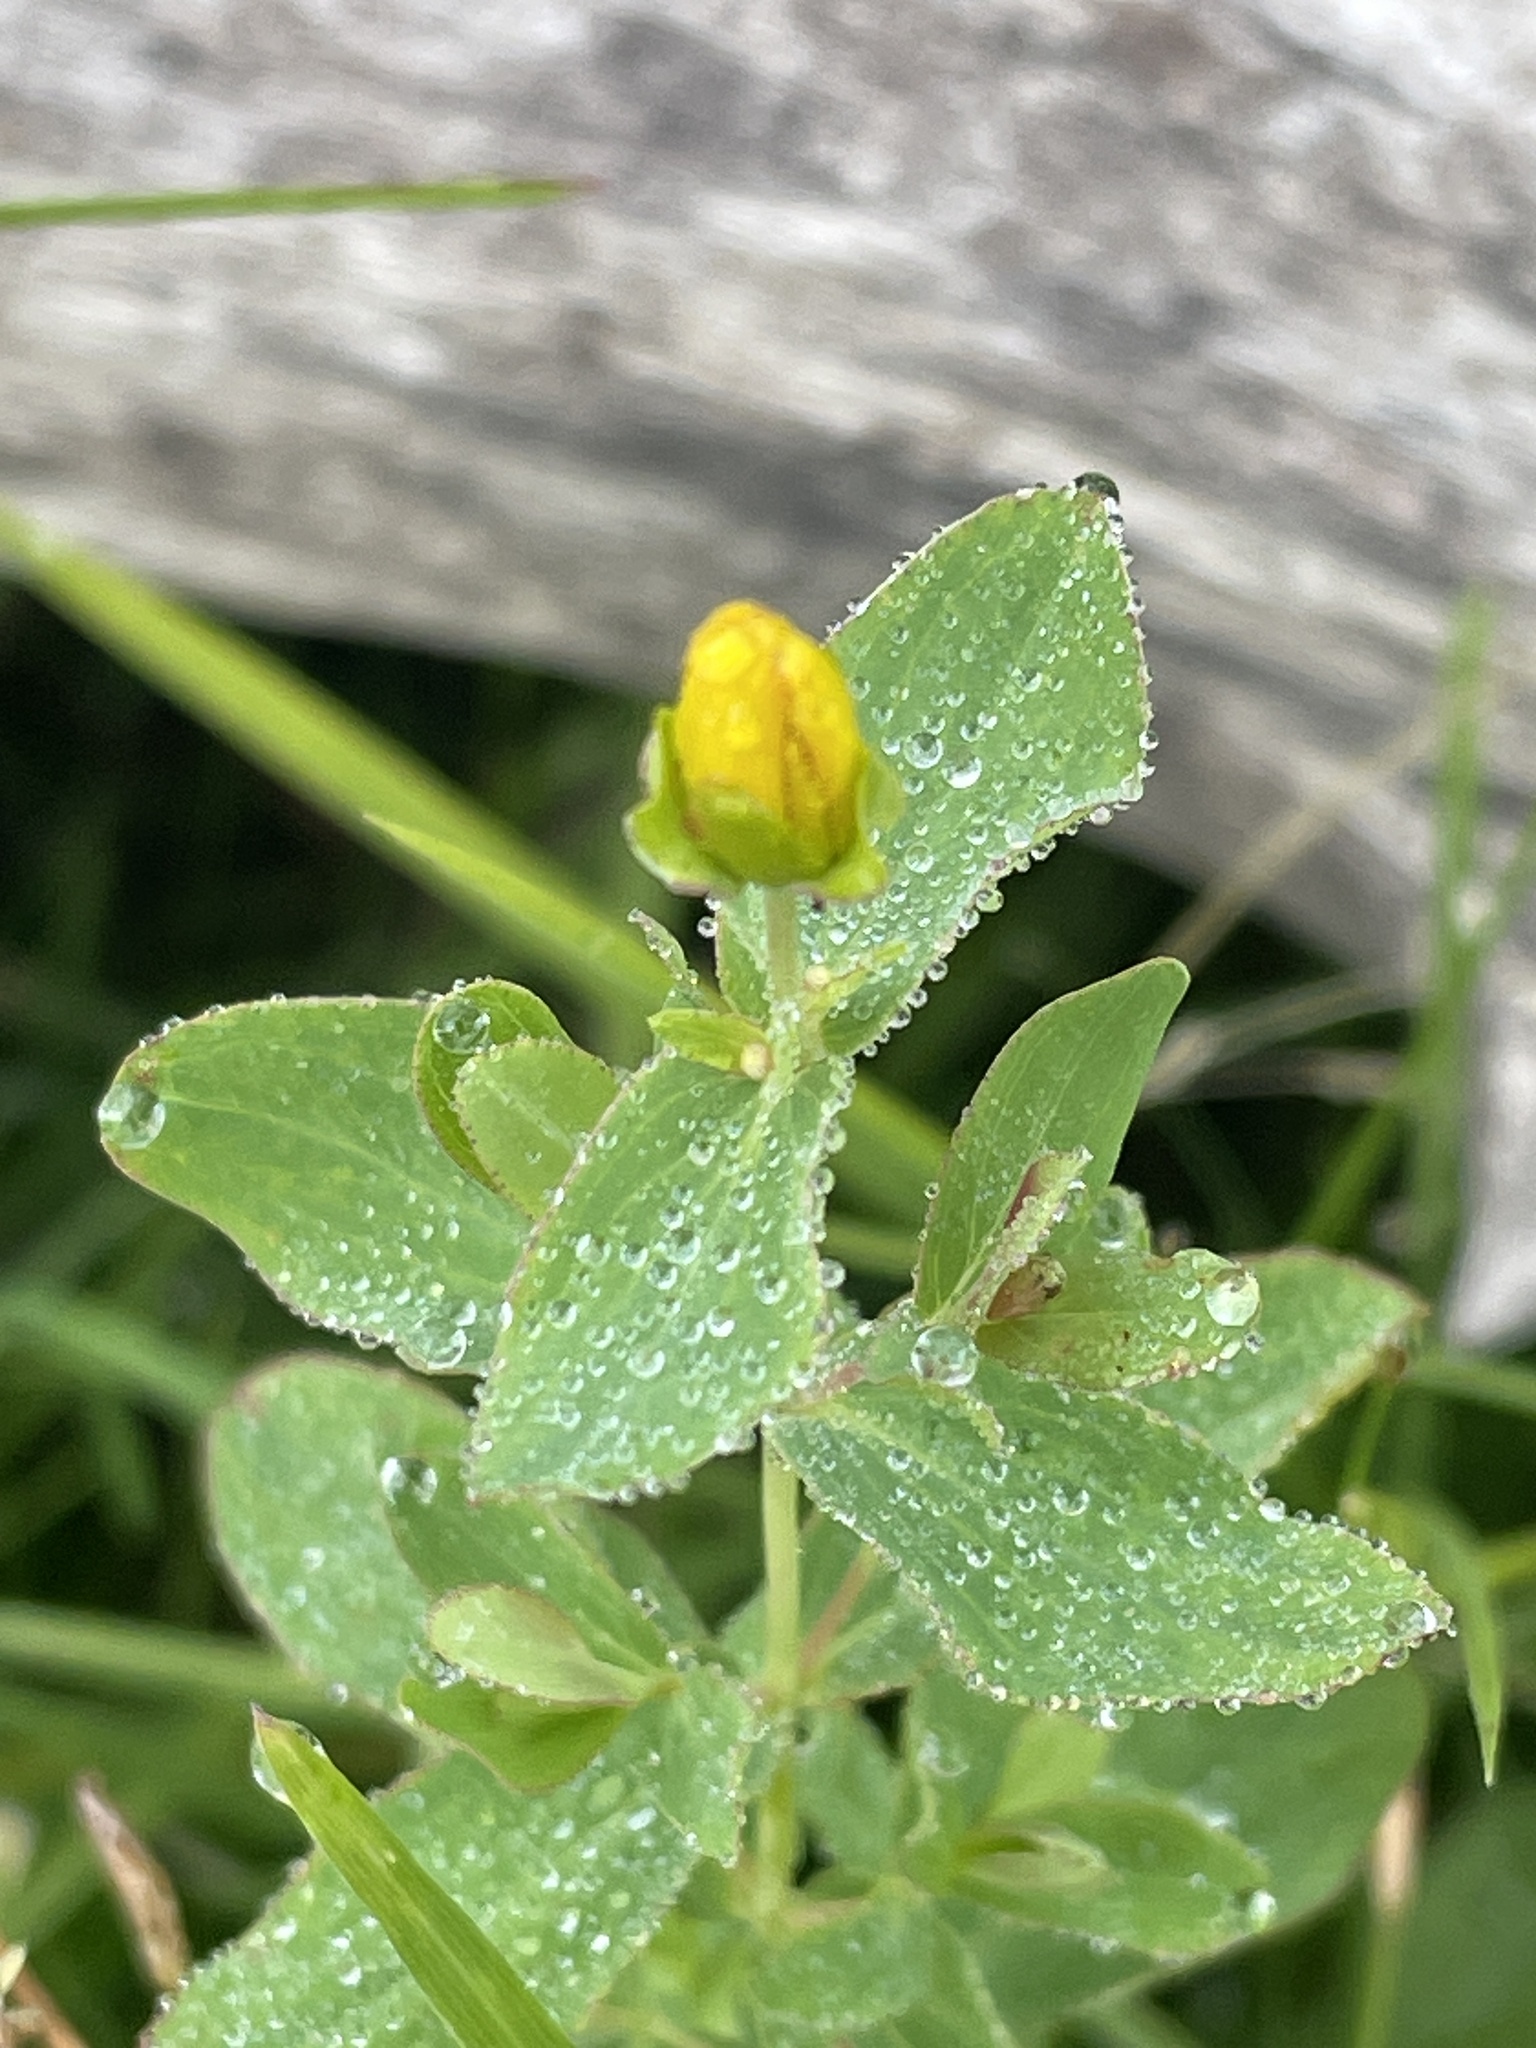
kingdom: Plantae
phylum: Tracheophyta
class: Magnoliopsida
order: Malpighiales
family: Hypericaceae
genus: Hypericum
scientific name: Hypericum scouleri
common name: Scouler's st. john's-wort
